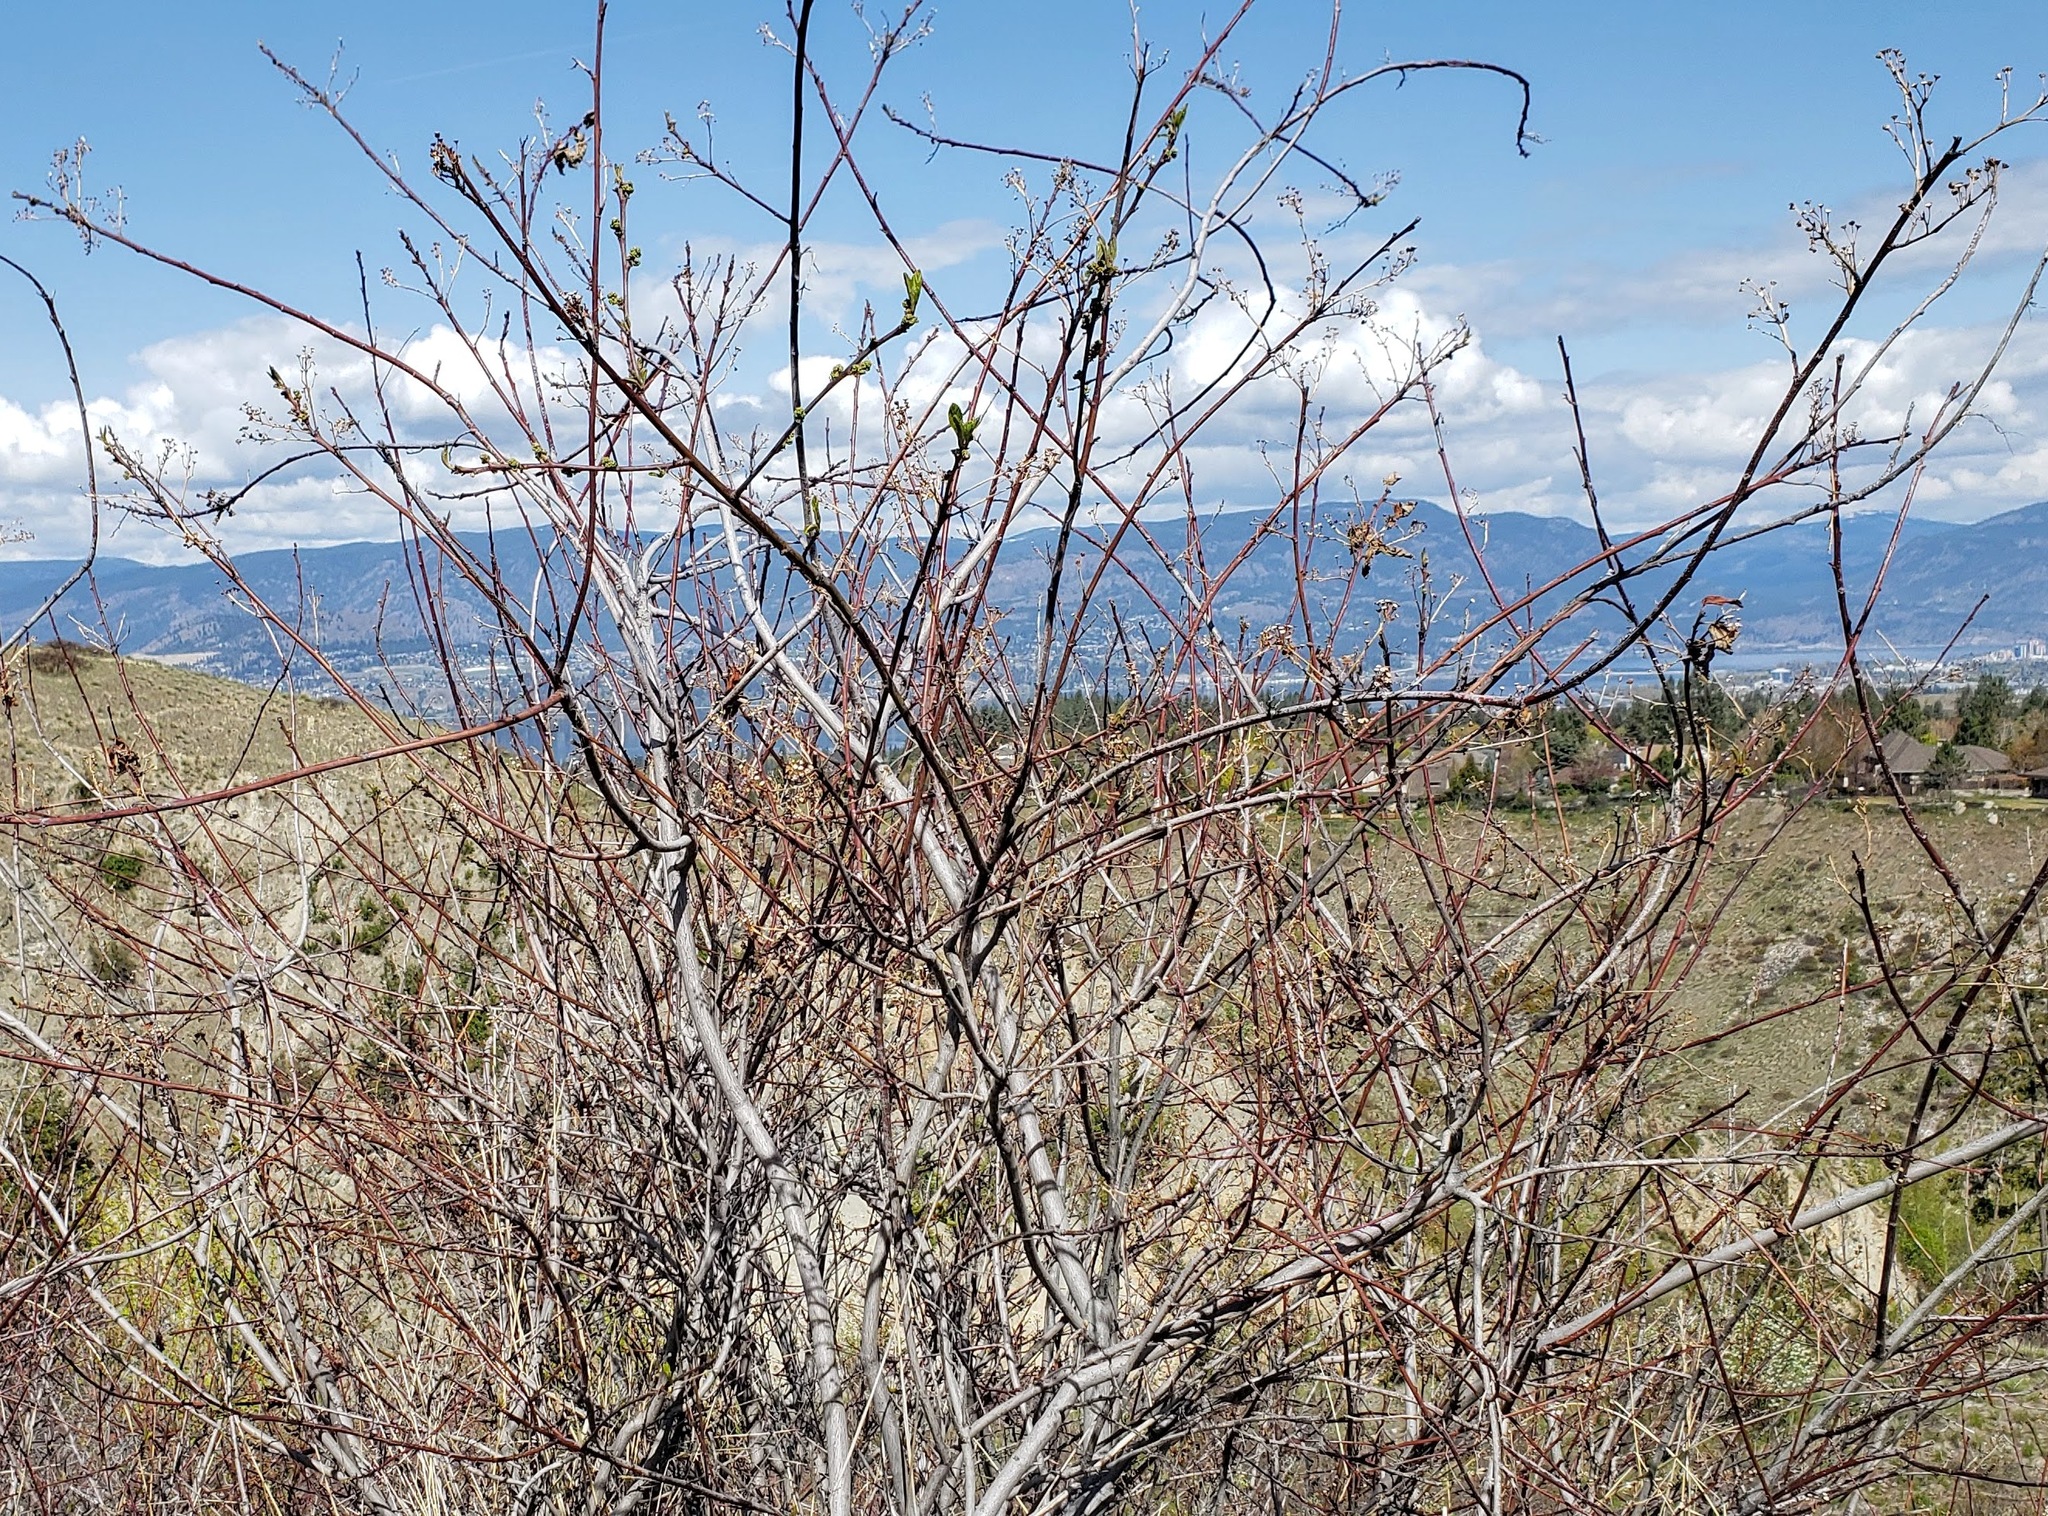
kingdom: Plantae
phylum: Tracheophyta
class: Magnoliopsida
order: Rosales
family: Rhamnaceae
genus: Ceanothus
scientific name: Ceanothus sanguineus
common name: Teatree
